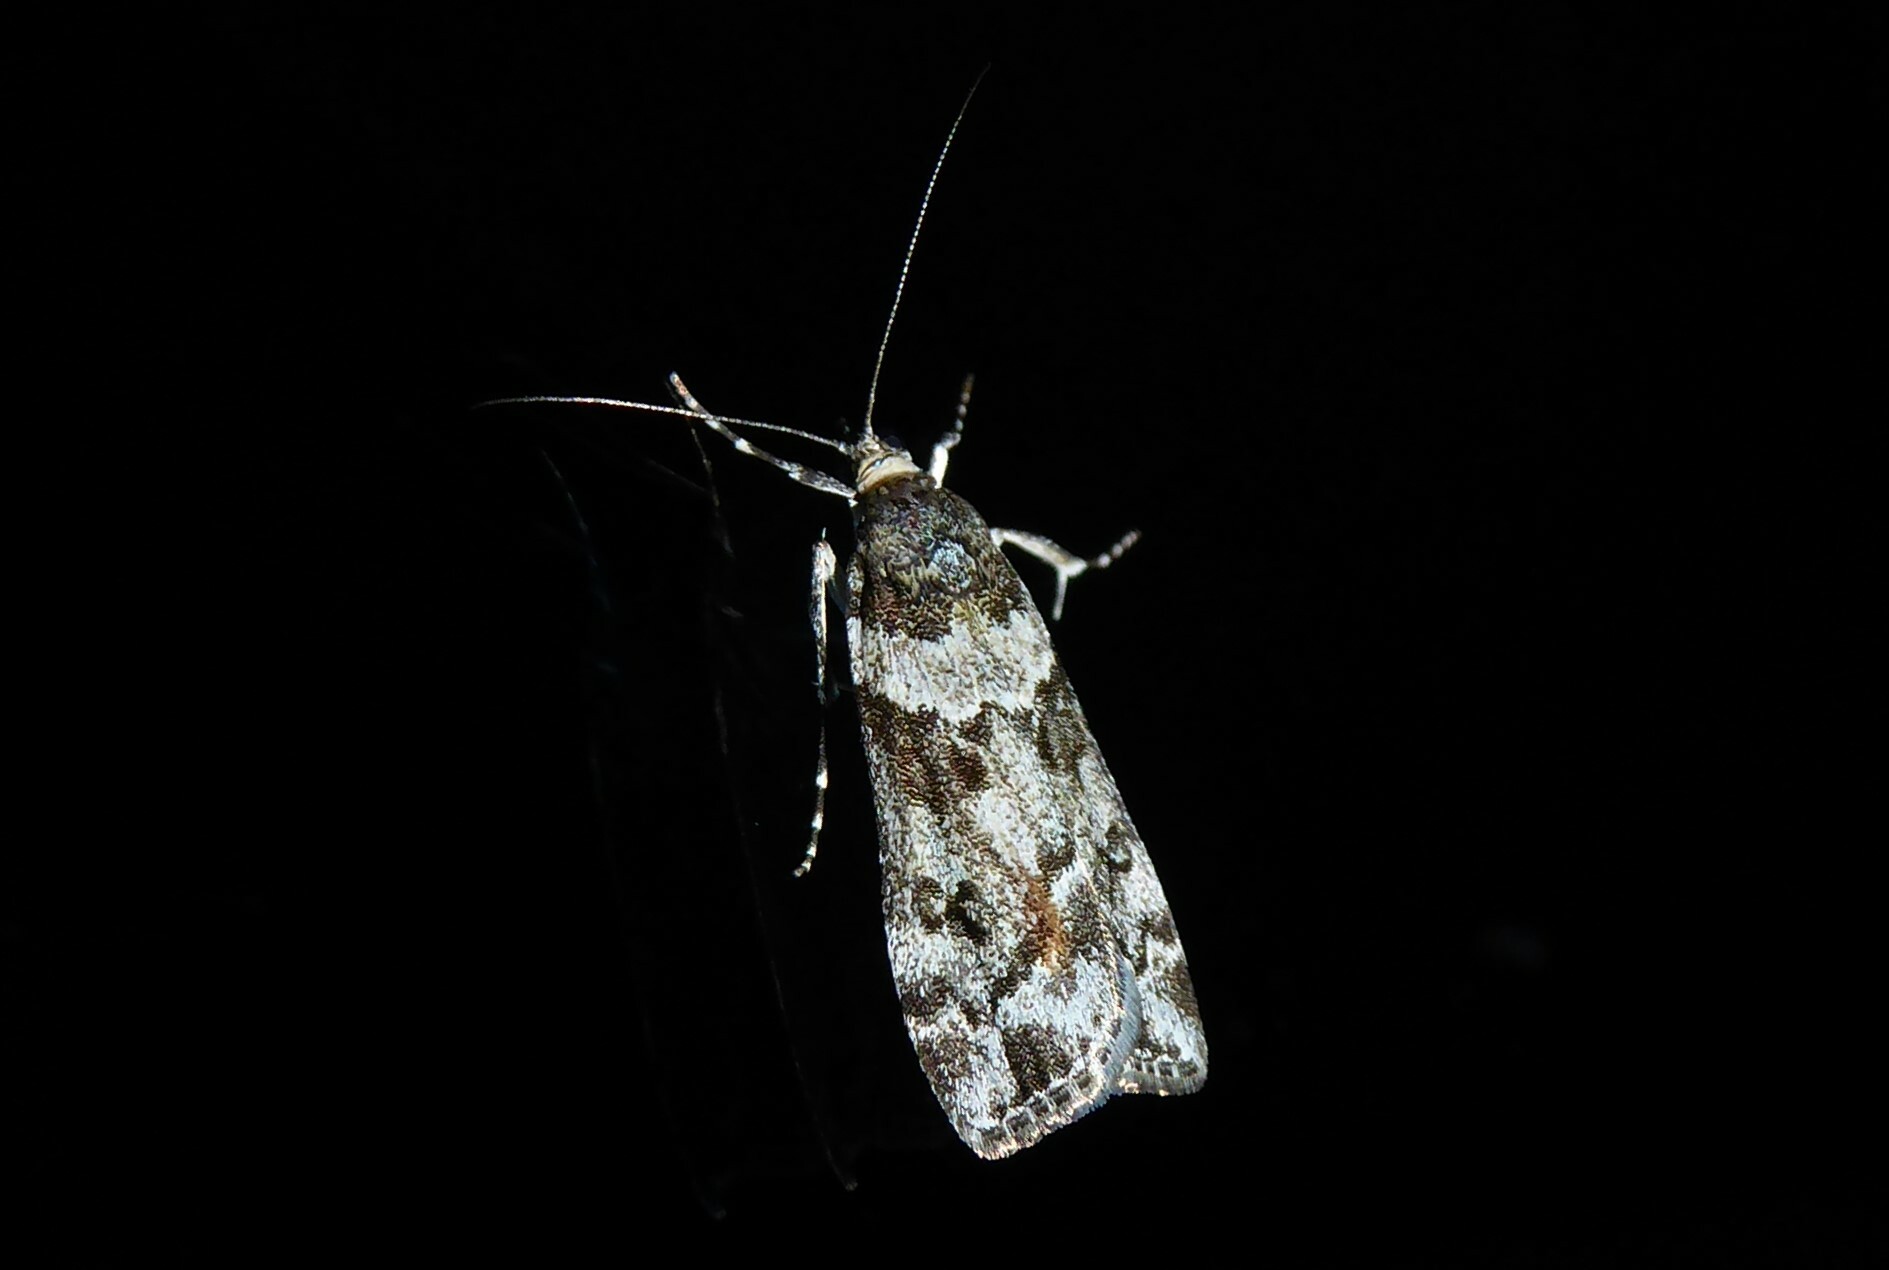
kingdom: Animalia
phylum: Arthropoda
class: Insecta
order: Lepidoptera
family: Crambidae
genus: Eudonia
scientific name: Eudonia submarginalis
